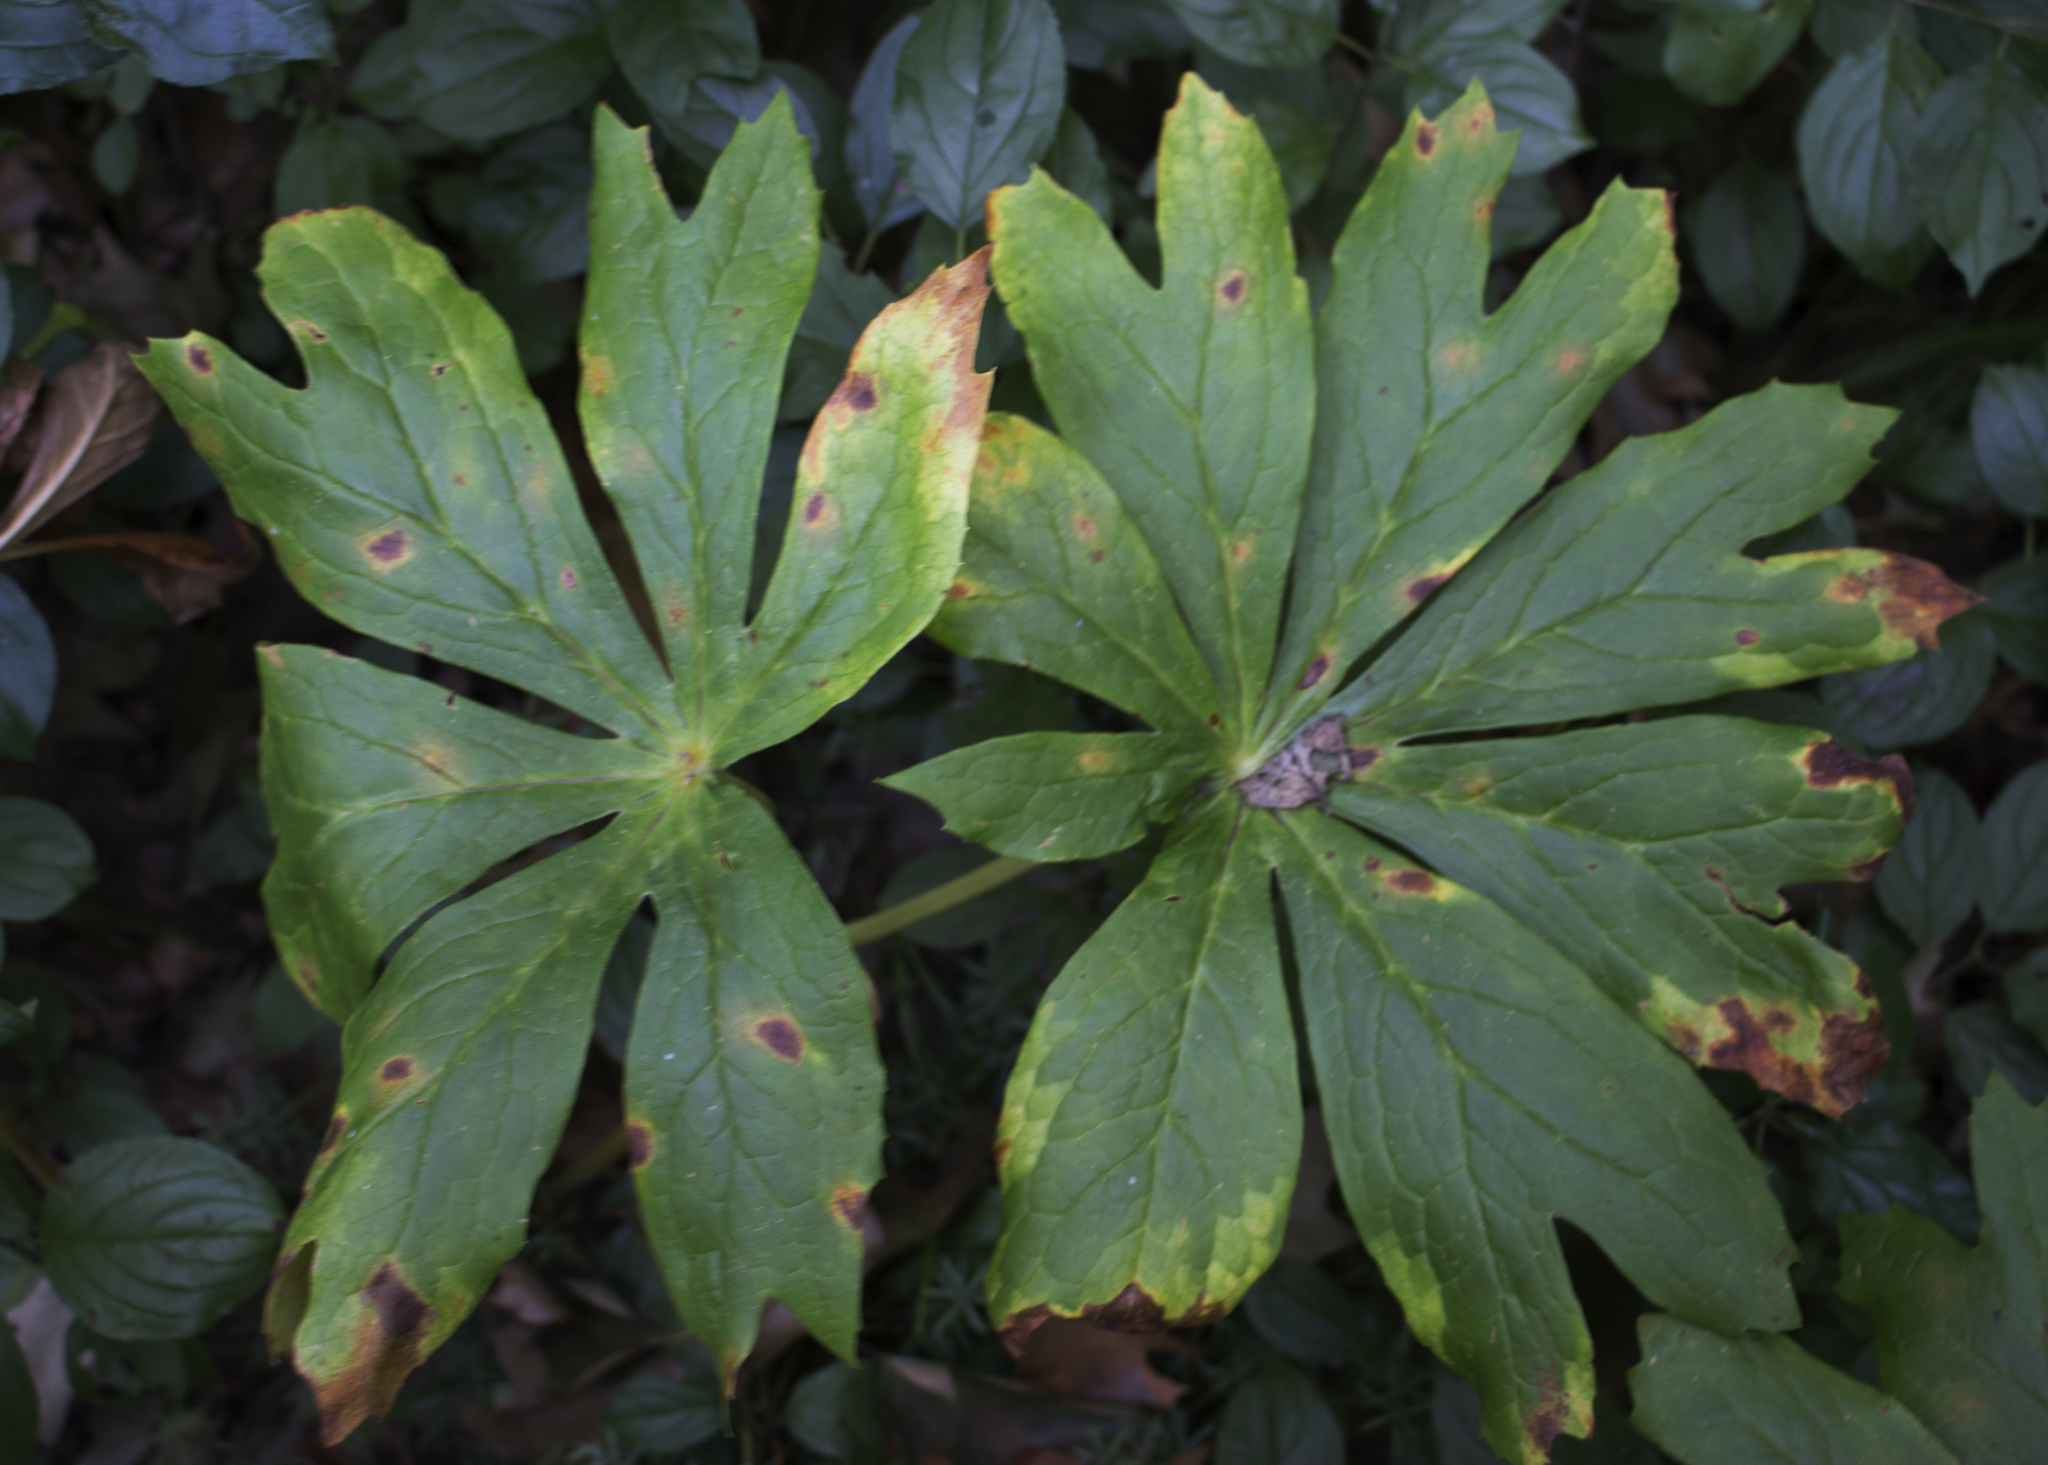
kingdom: Plantae
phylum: Tracheophyta
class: Magnoliopsida
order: Ranunculales
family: Berberidaceae
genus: Podophyllum
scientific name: Podophyllum peltatum
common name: Wild mandrake
